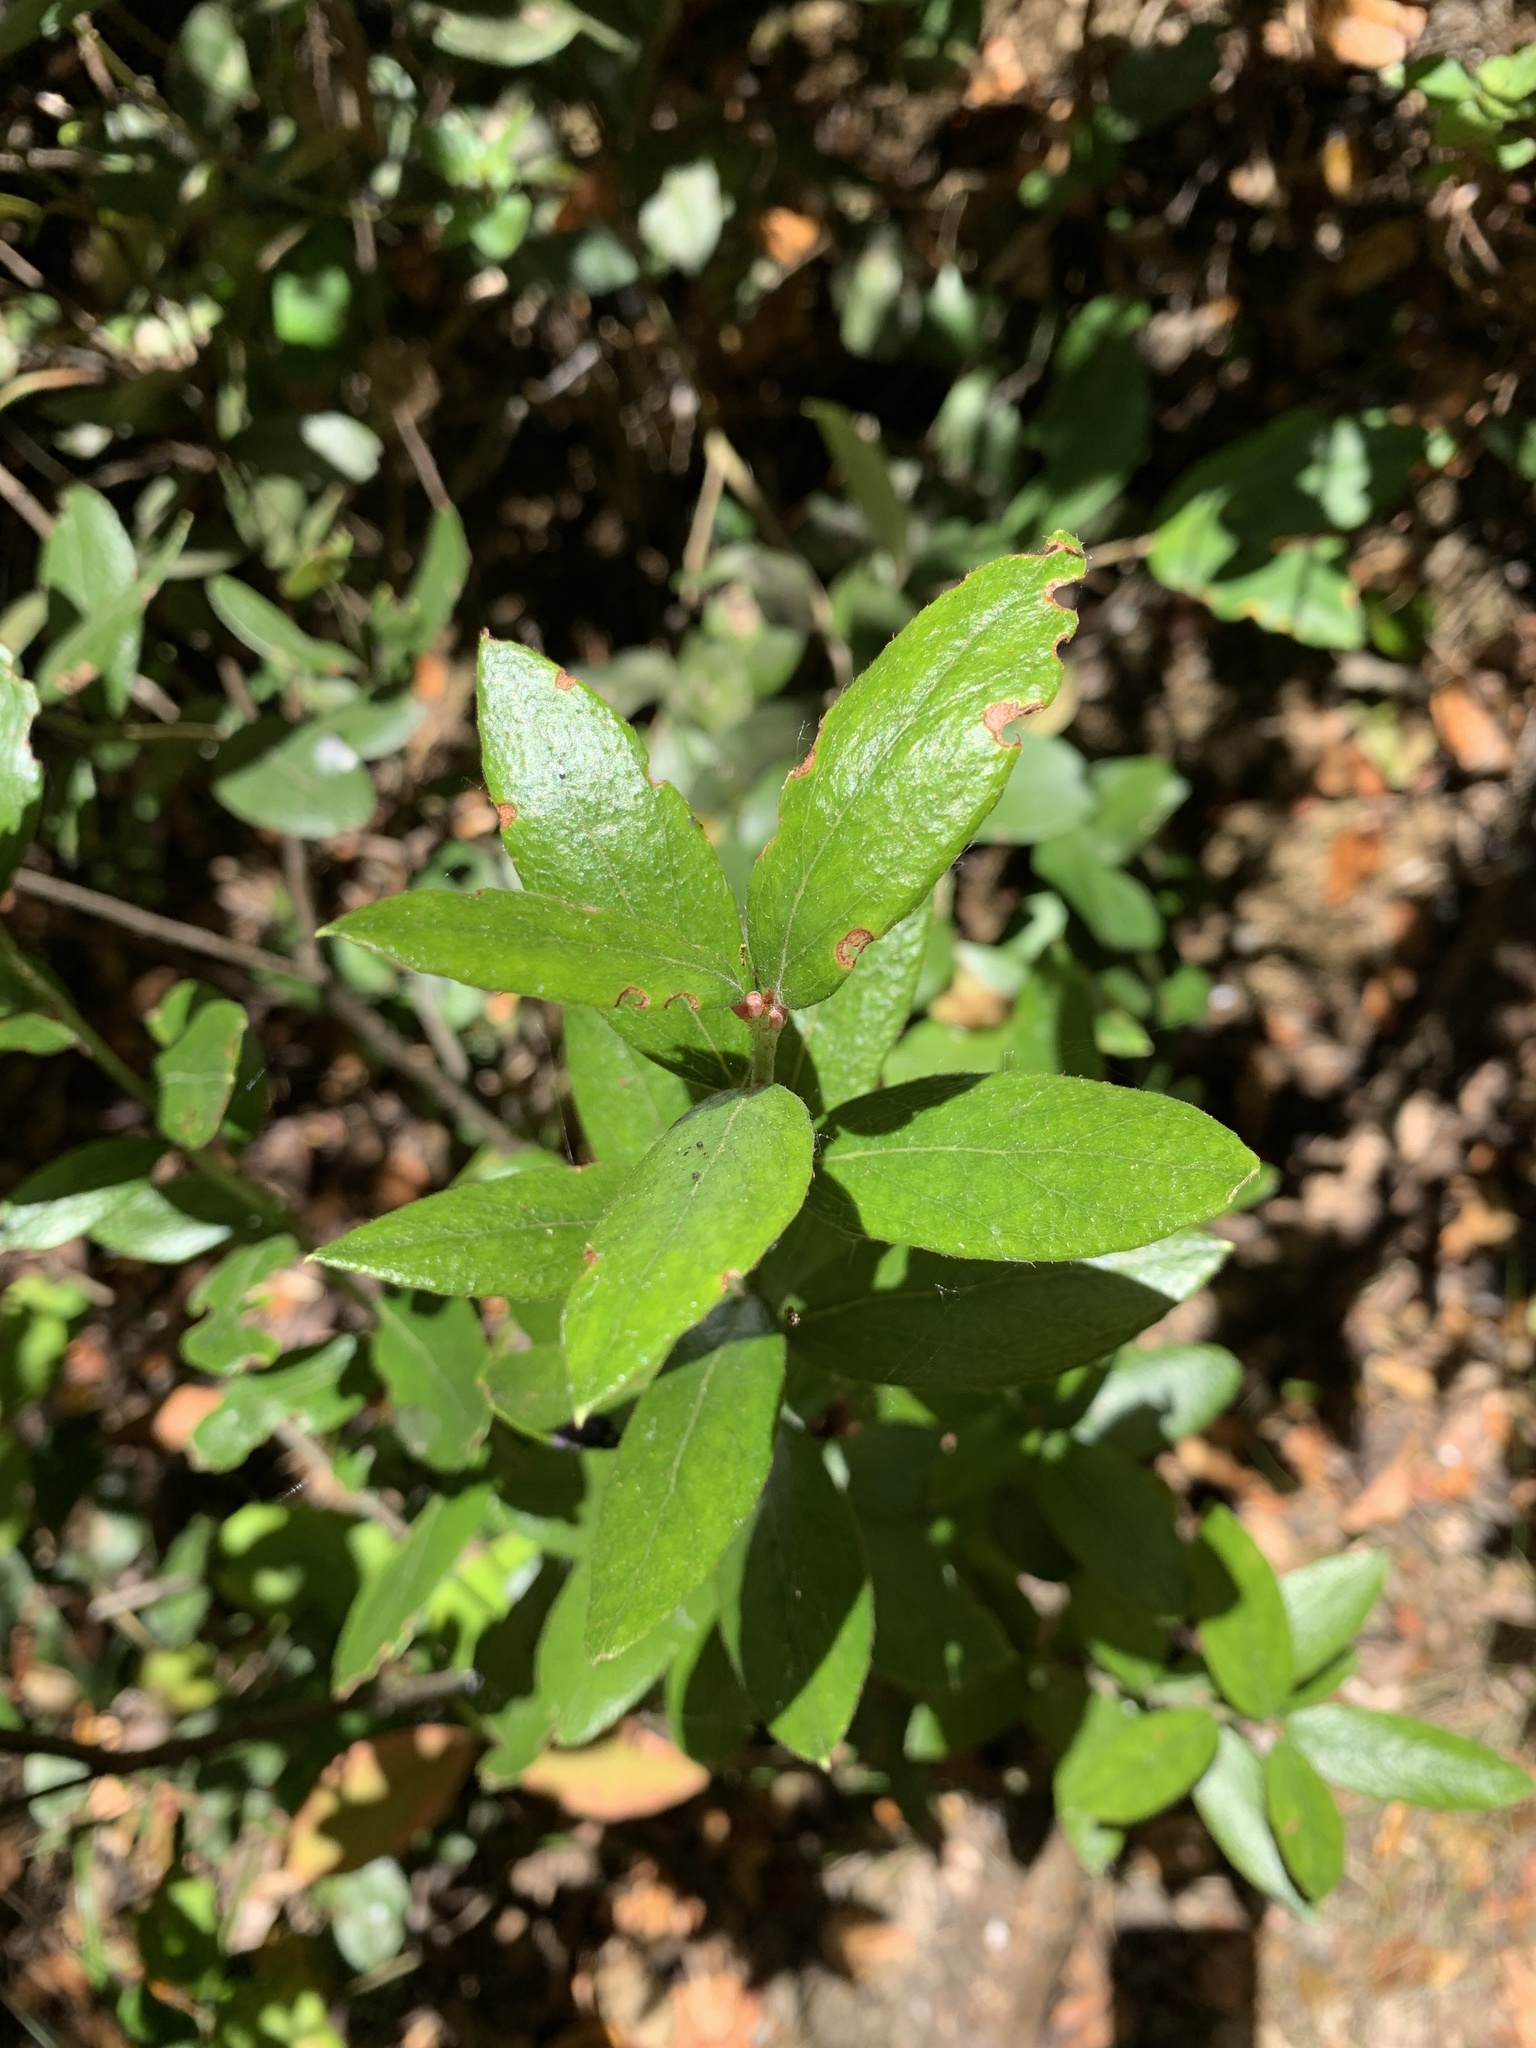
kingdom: Plantae
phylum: Tracheophyta
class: Magnoliopsida
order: Ericales
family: Ericaceae
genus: Gaultheria
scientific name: Gaultheria insana
